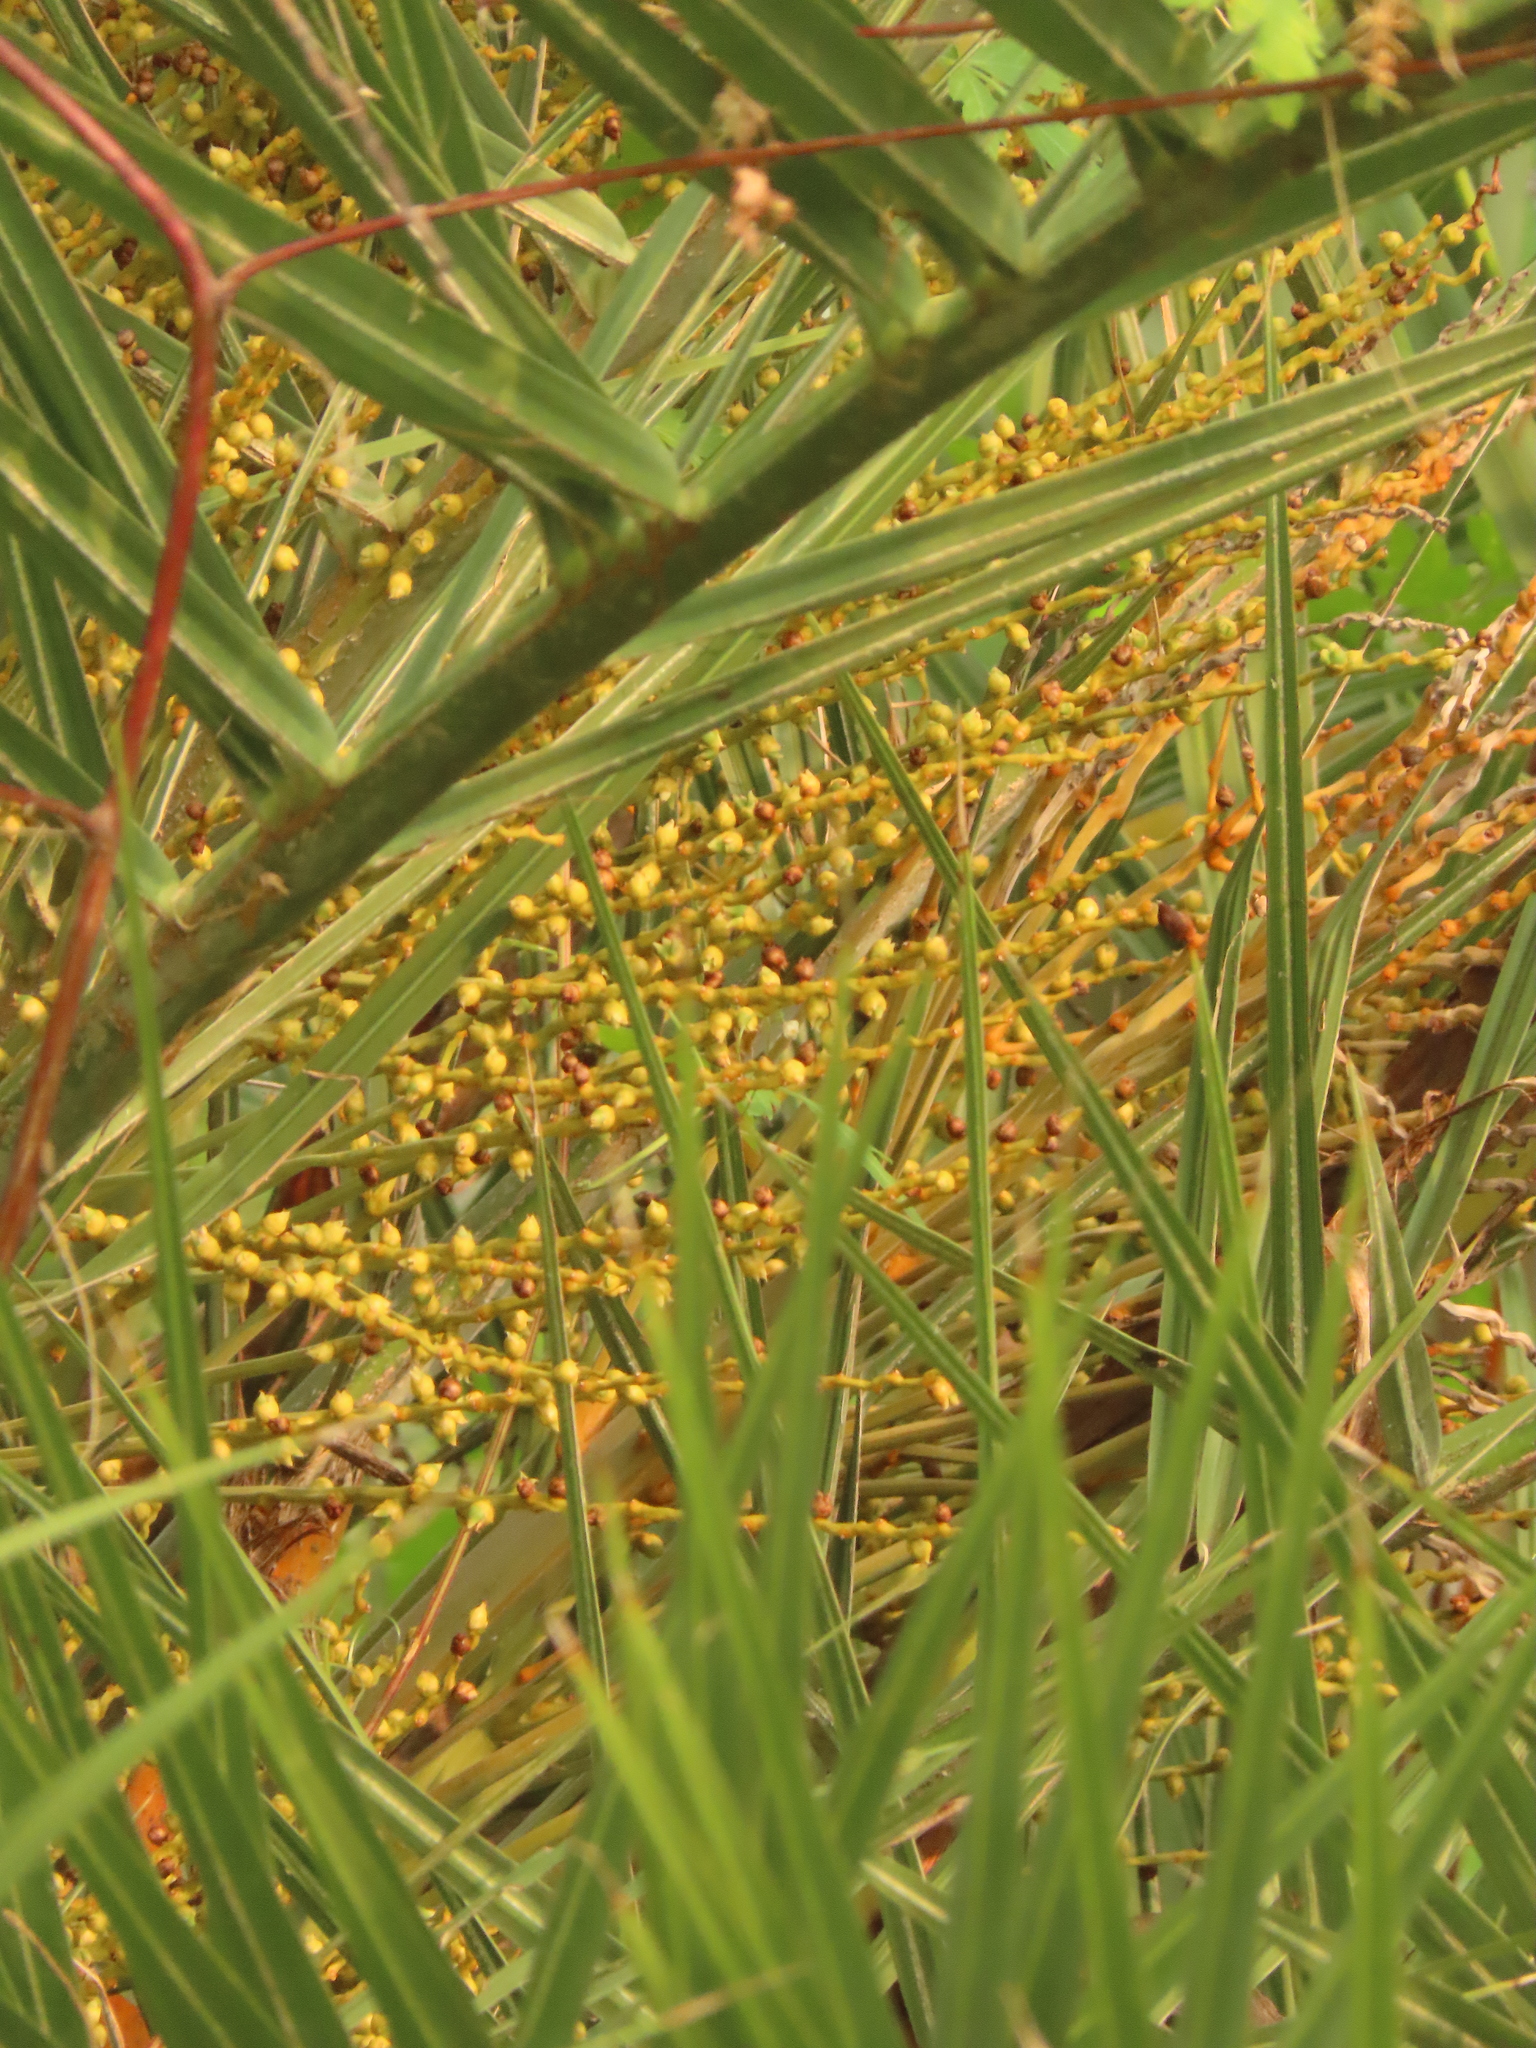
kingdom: Plantae
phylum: Tracheophyta
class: Liliopsida
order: Arecales
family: Arecaceae
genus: Phoenix
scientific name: Phoenix loureiroi
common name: Loureiro's palm
